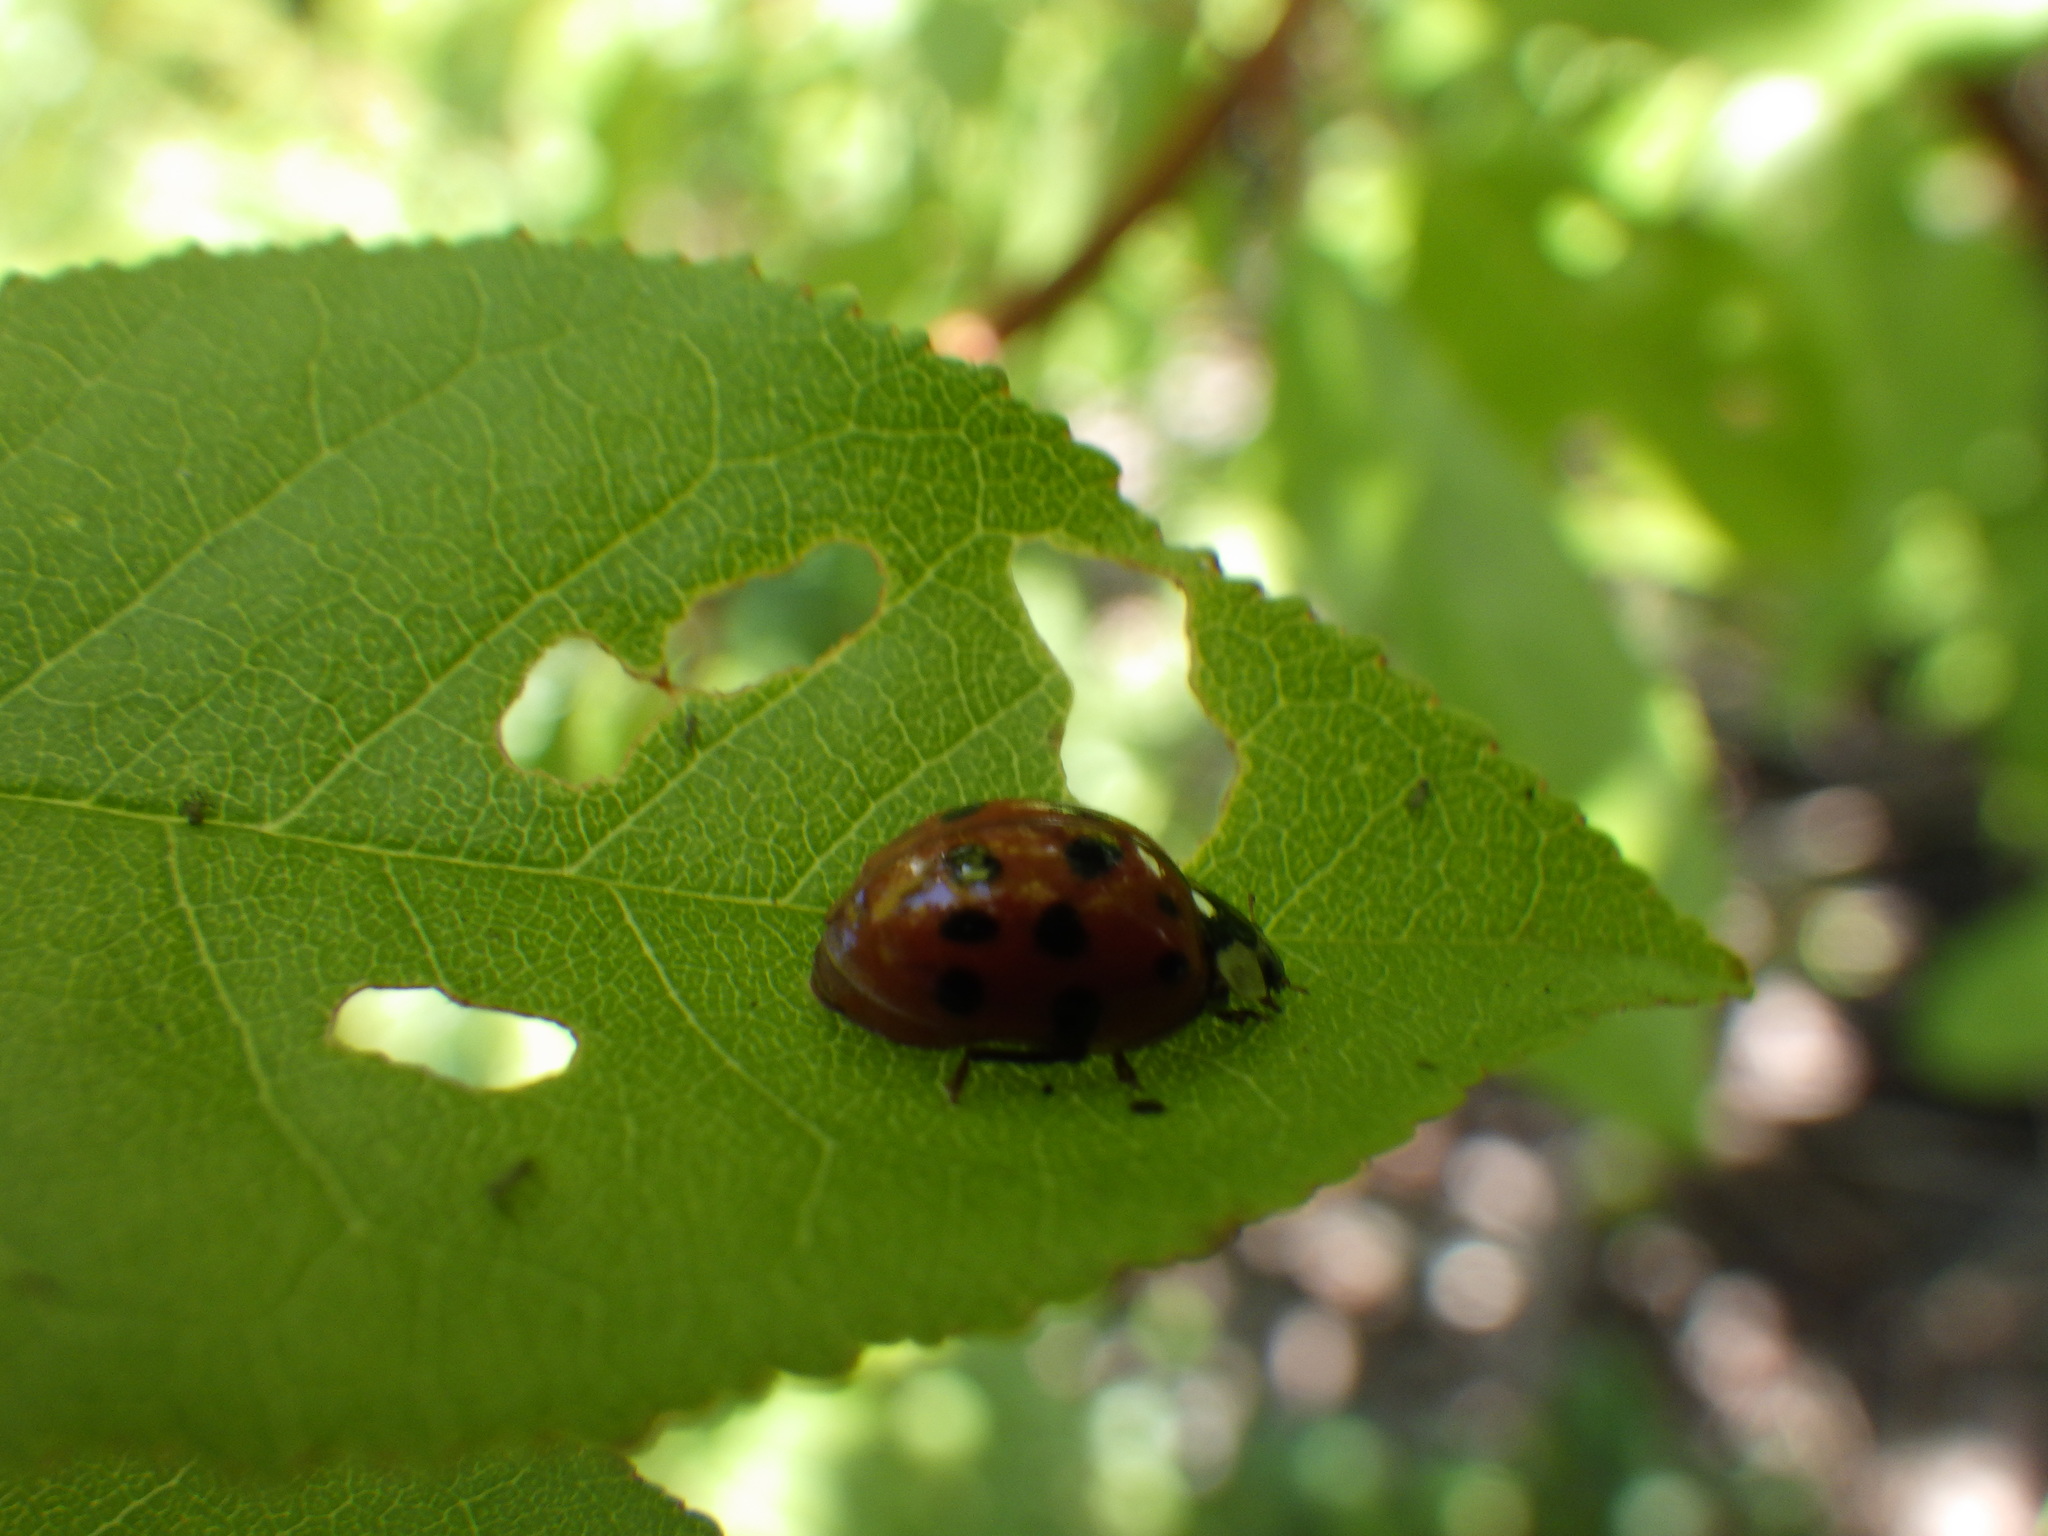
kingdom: Animalia
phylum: Arthropoda
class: Insecta
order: Coleoptera
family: Coccinellidae
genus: Harmonia
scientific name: Harmonia axyridis
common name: Harlequin ladybird
